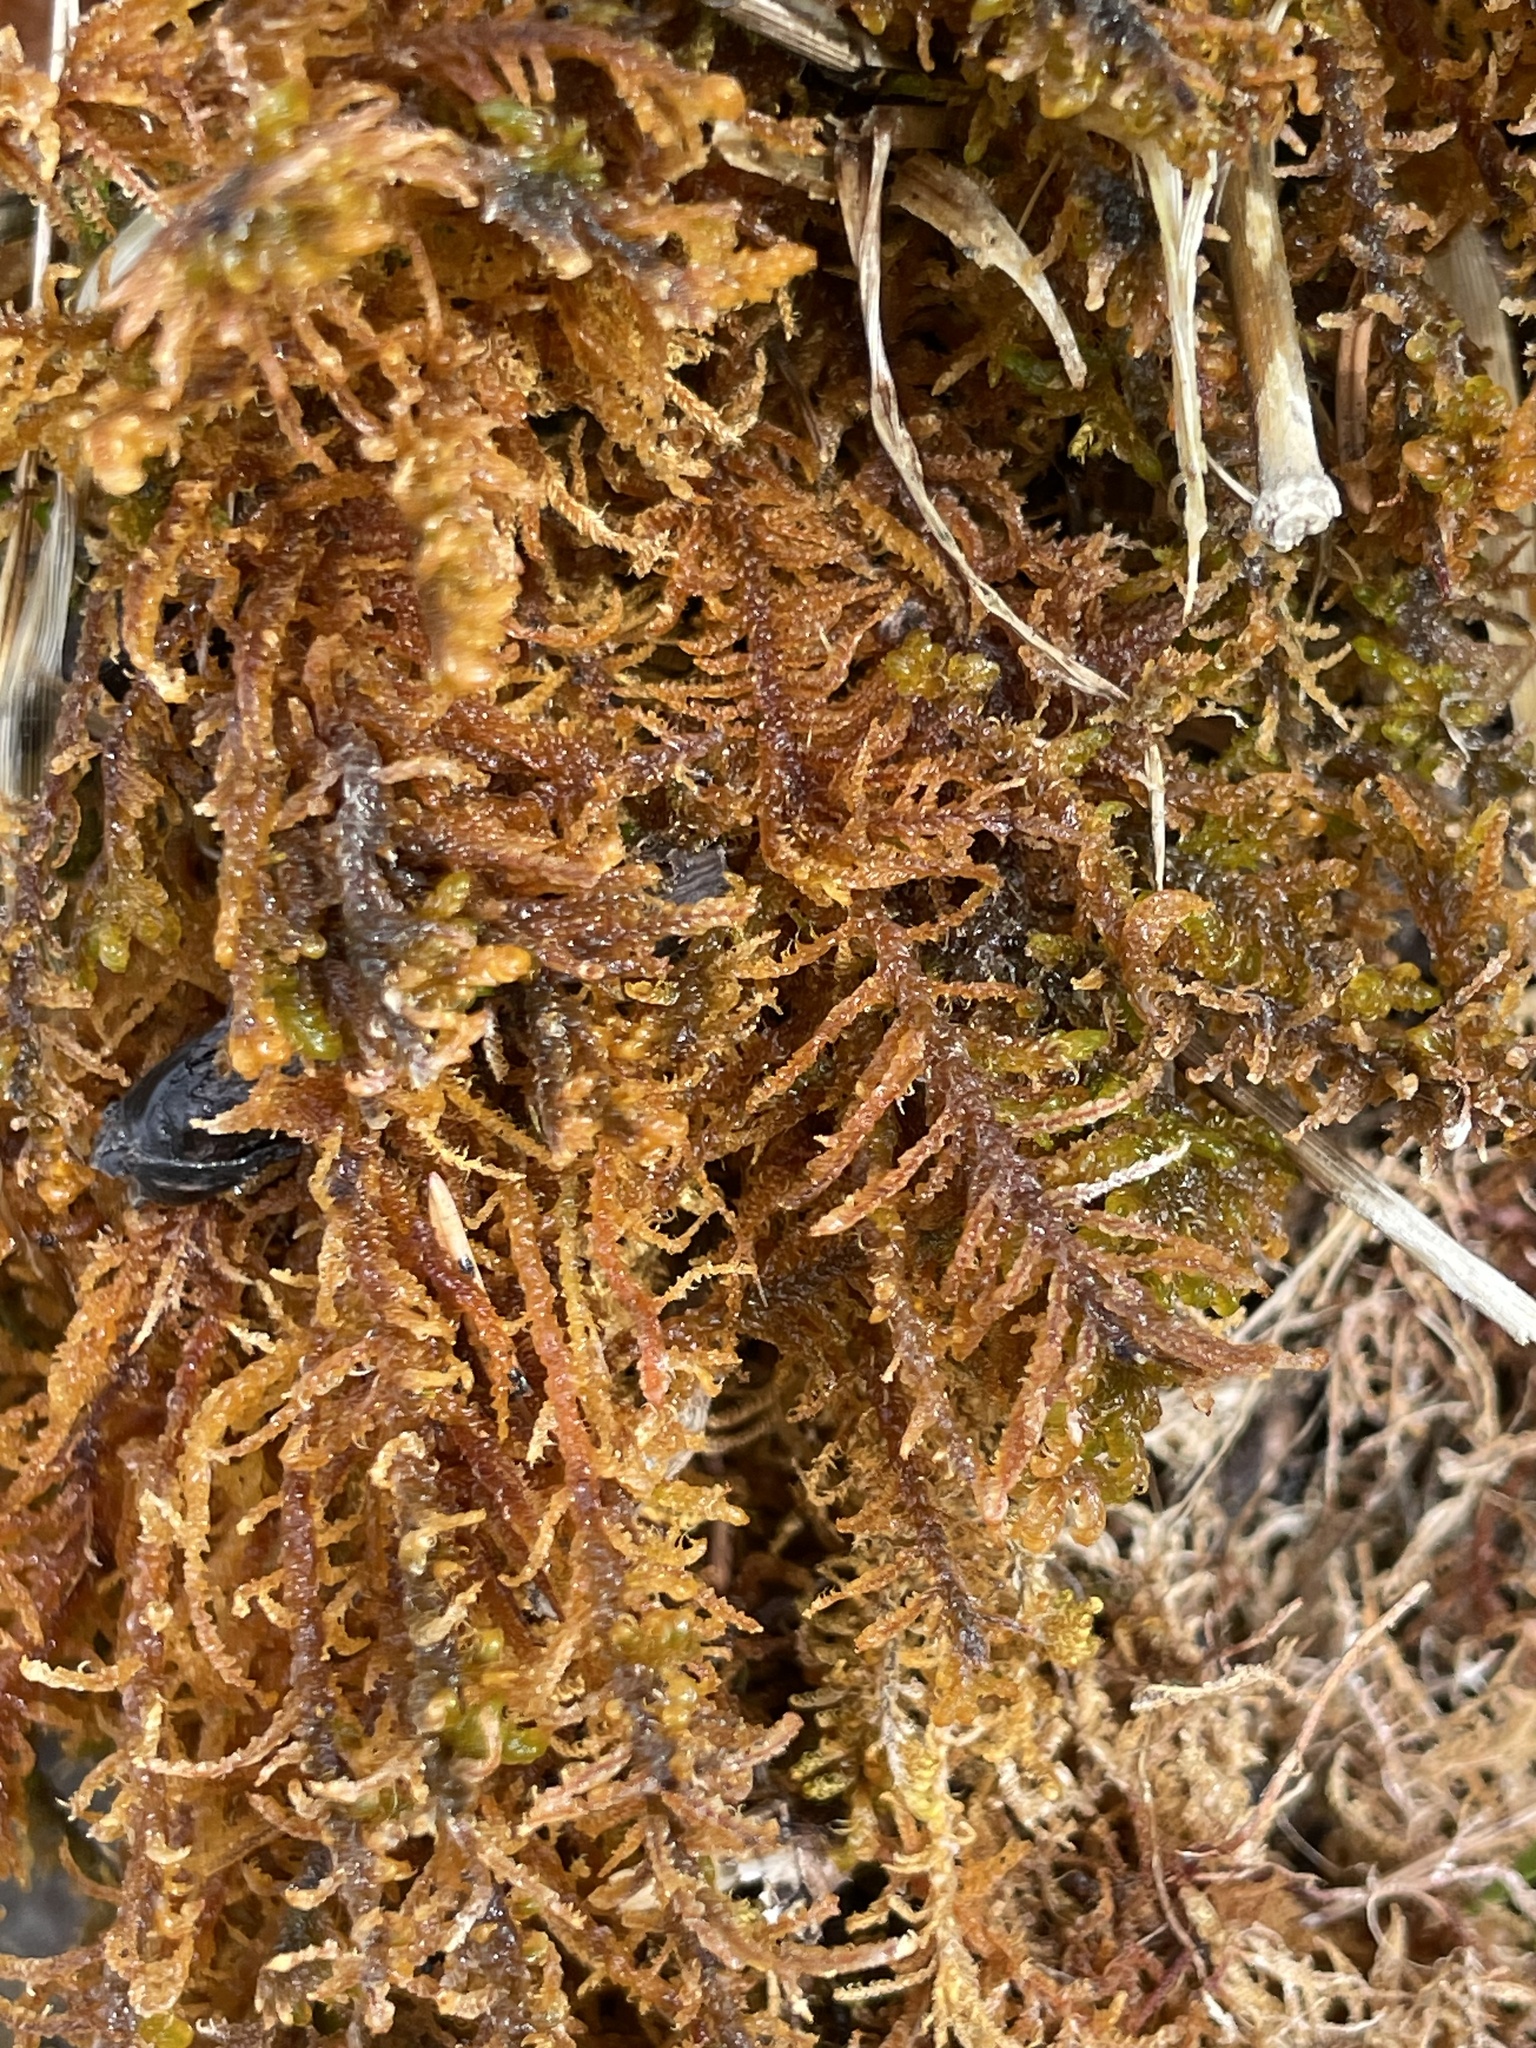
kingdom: Plantae
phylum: Bryophyta
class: Bryopsida
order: Hypnales
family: Amblystegiaceae
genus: Palustriella
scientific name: Palustriella commutata
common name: Curled hook-moss
